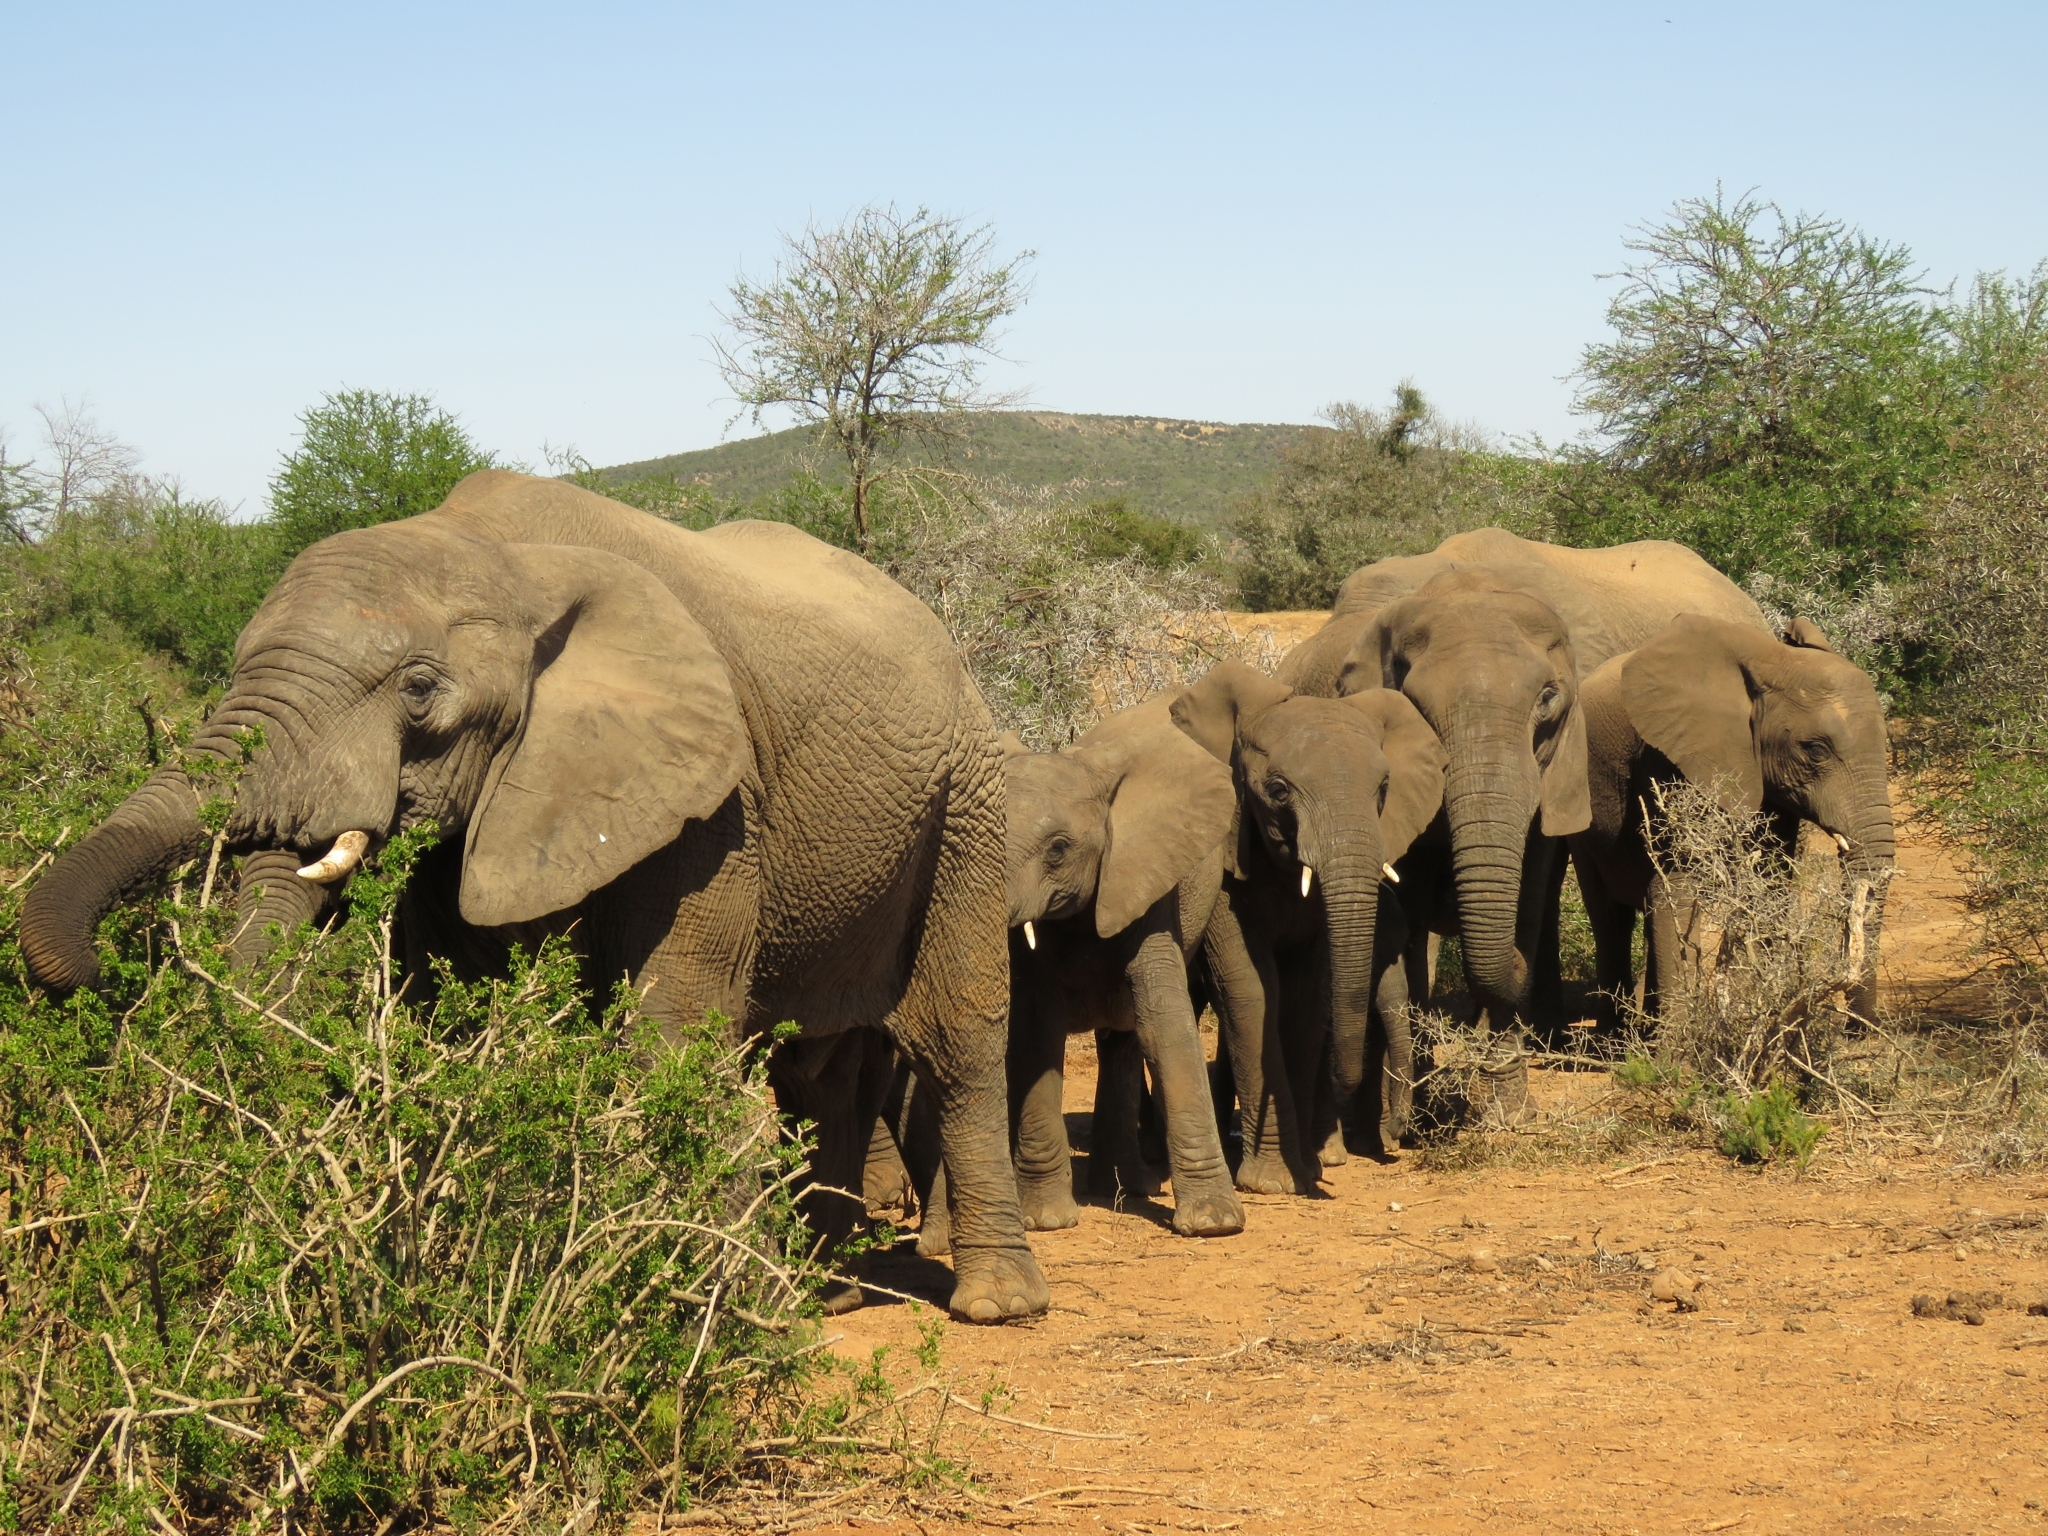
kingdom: Animalia
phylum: Chordata
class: Mammalia
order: Proboscidea
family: Elephantidae
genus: Loxodonta
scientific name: Loxodonta africana
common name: African elephant
